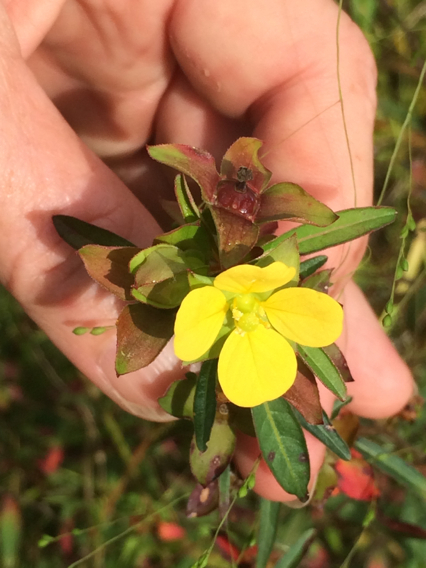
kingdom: Plantae
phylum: Tracheophyta
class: Magnoliopsida
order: Myrtales
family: Onagraceae
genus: Ludwigia
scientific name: Ludwigia alternifolia
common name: Rattlebox
